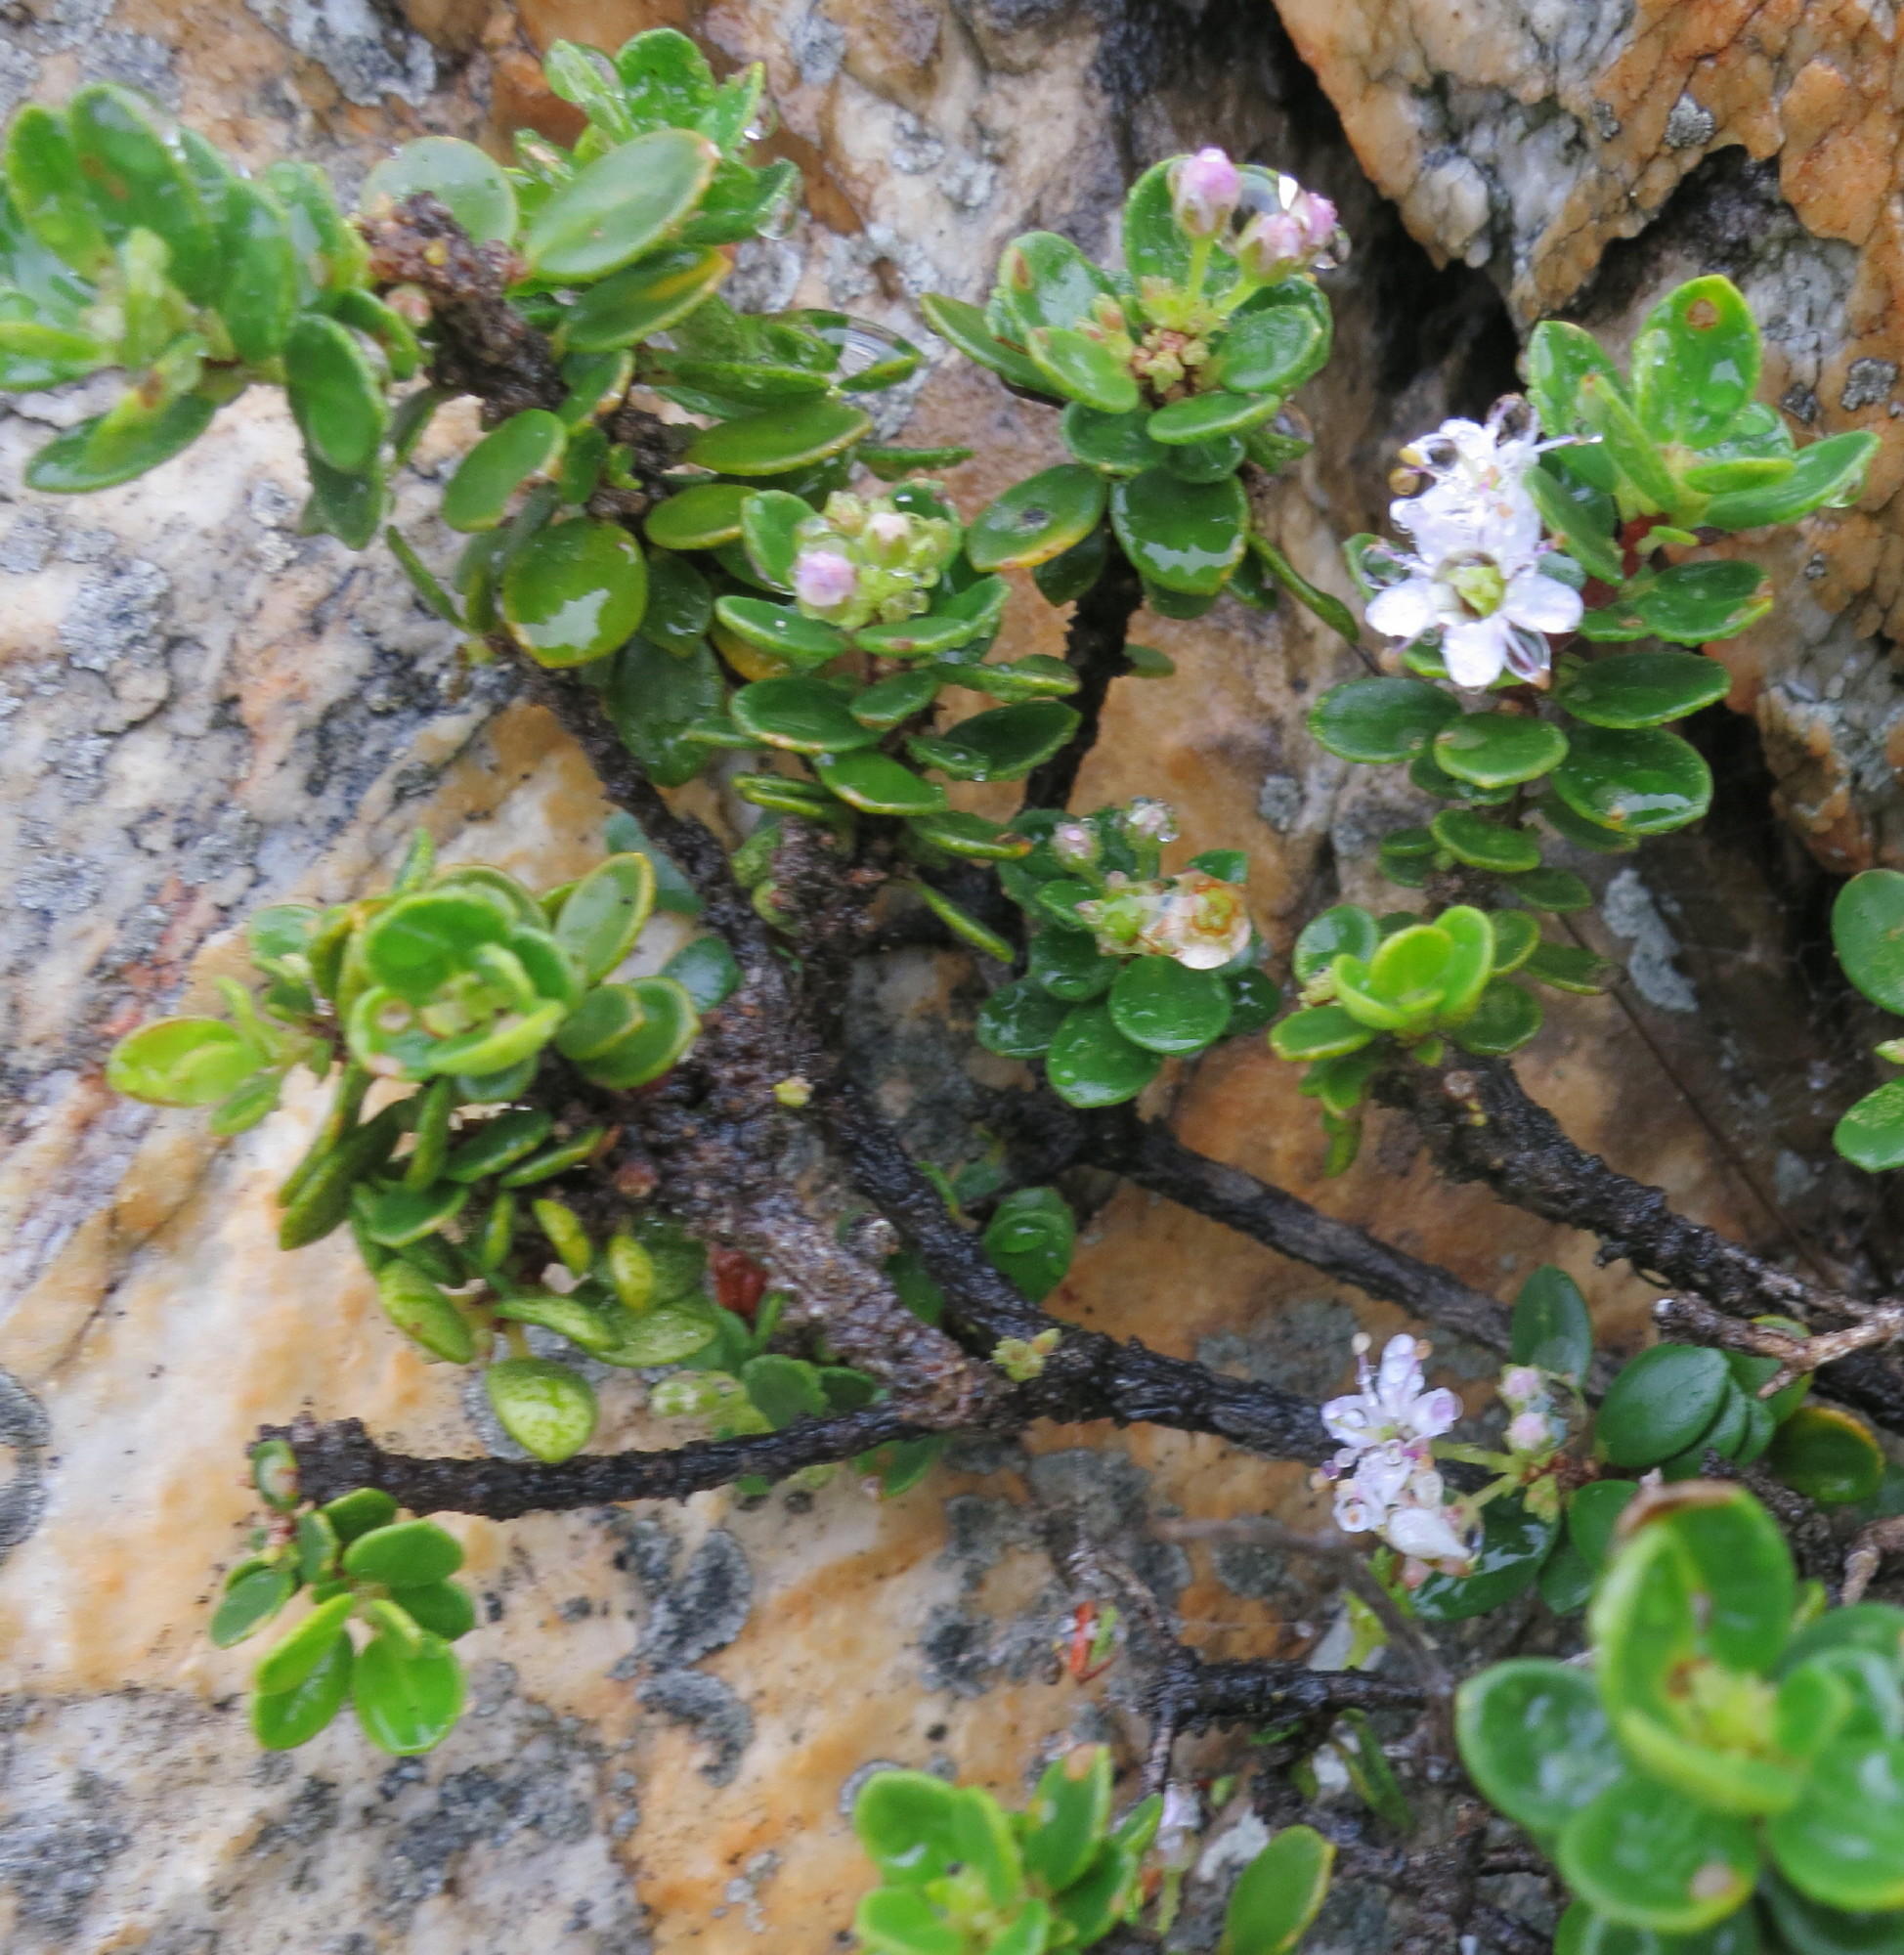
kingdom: Plantae
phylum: Tracheophyta
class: Magnoliopsida
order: Sapindales
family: Rutaceae
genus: Agathosma
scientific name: Agathosma ovata
